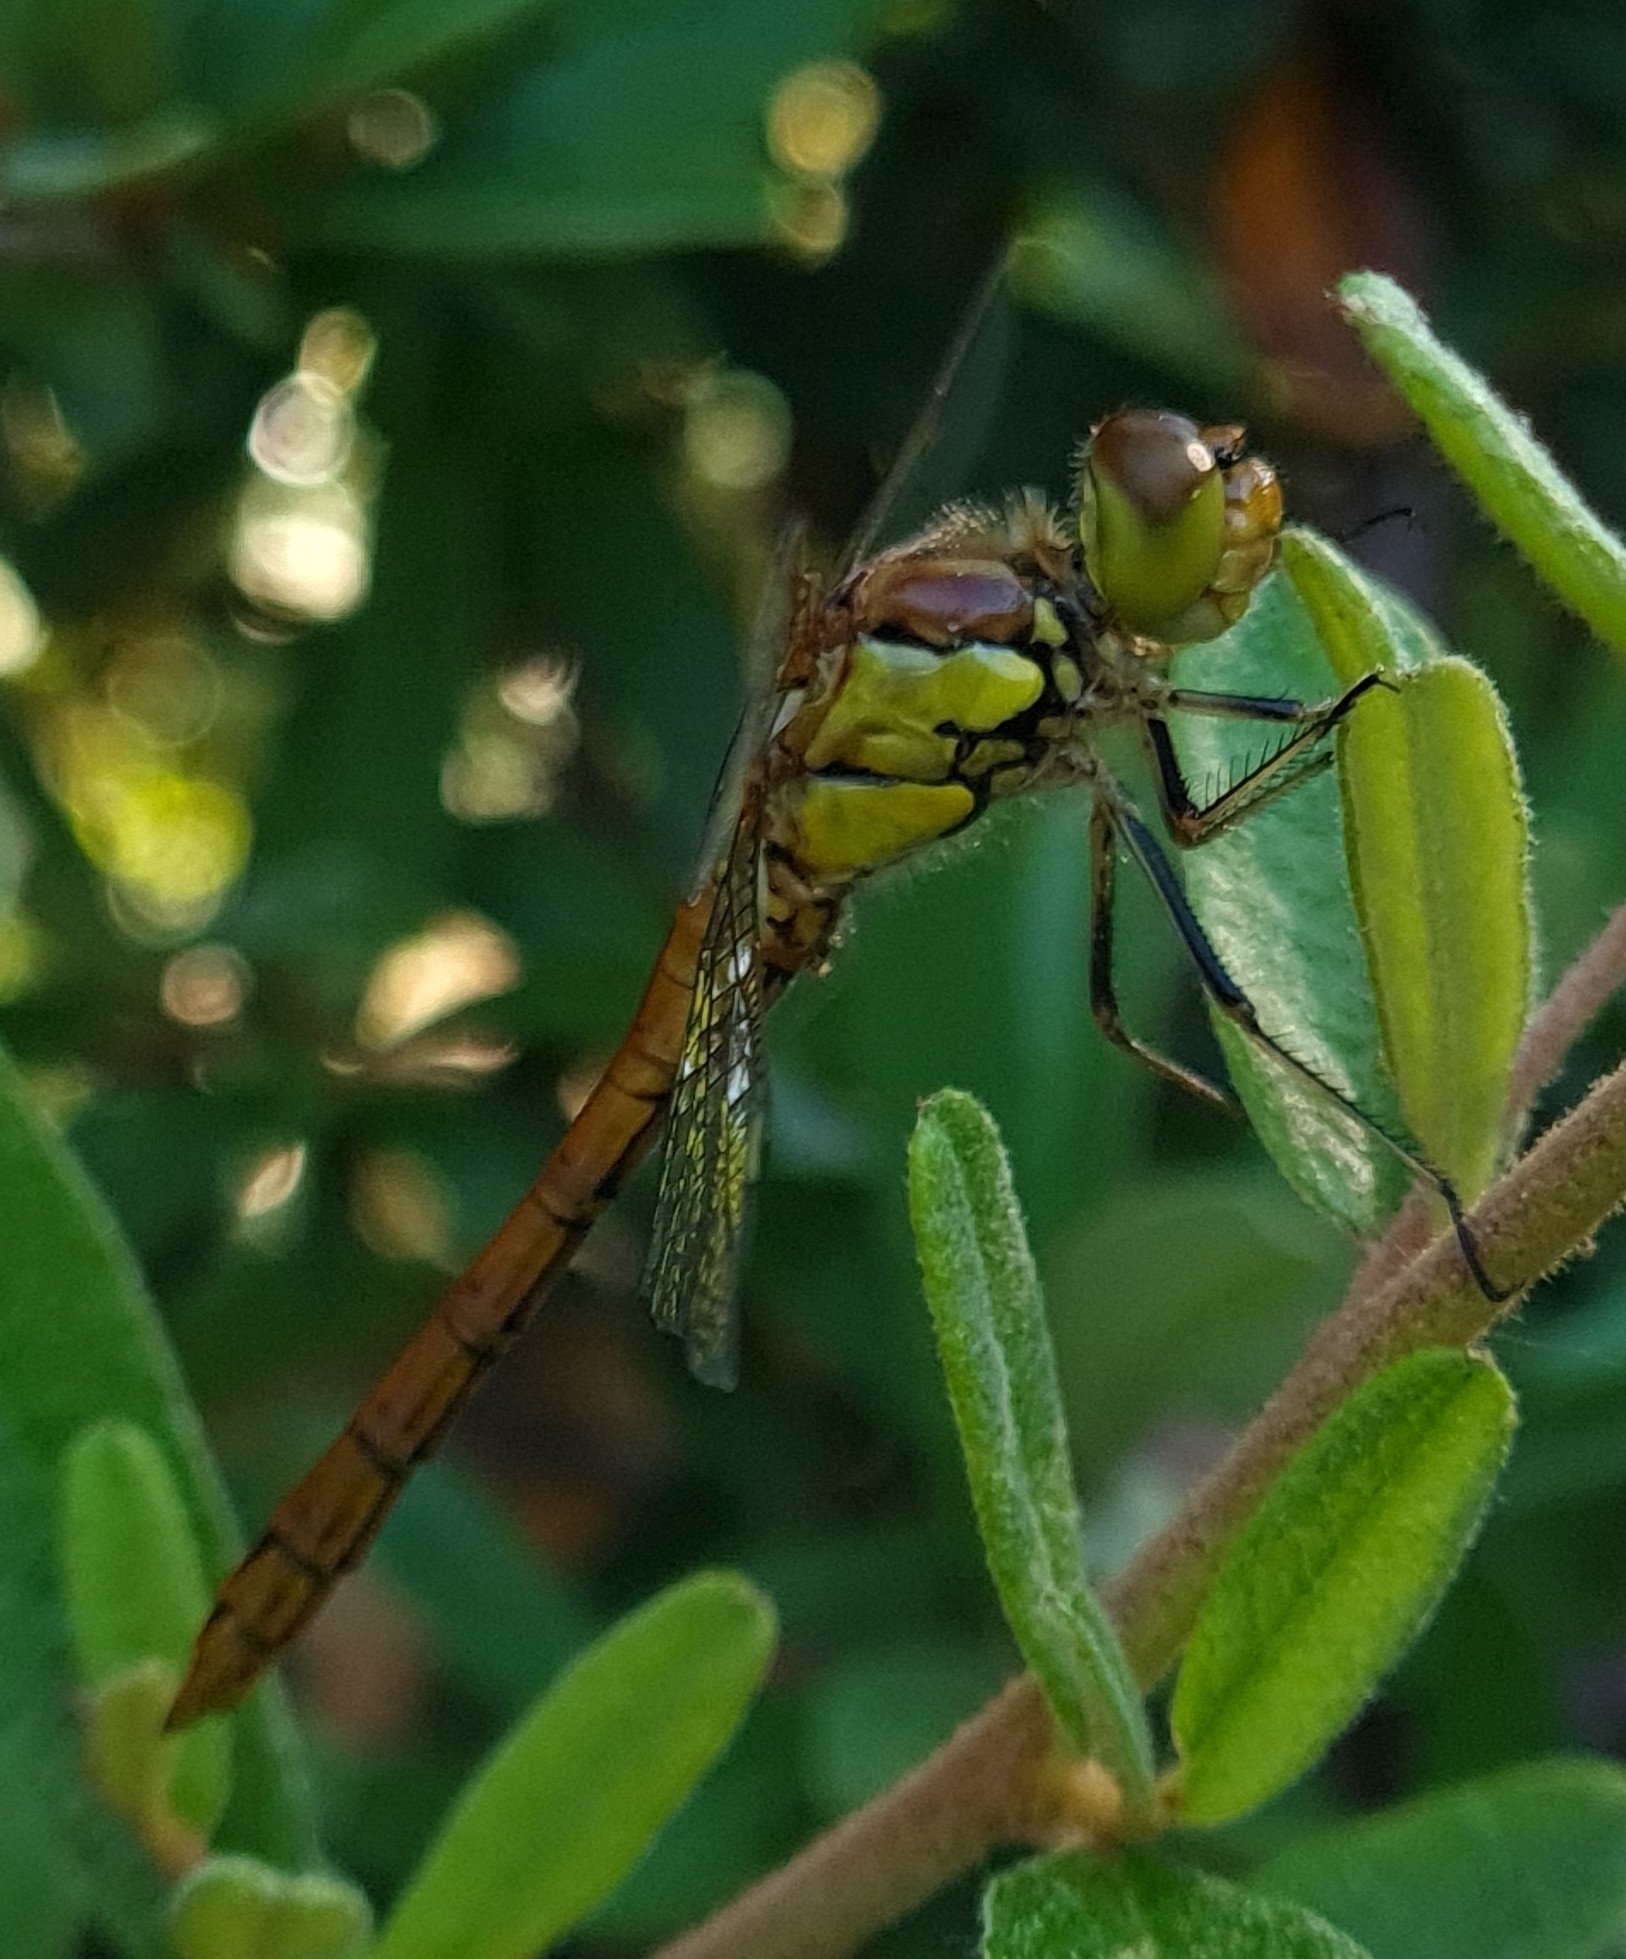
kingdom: Animalia
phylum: Arthropoda
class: Insecta
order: Odonata
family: Libellulidae
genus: Sympetrum
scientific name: Sympetrum striolatum
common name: Common darter
